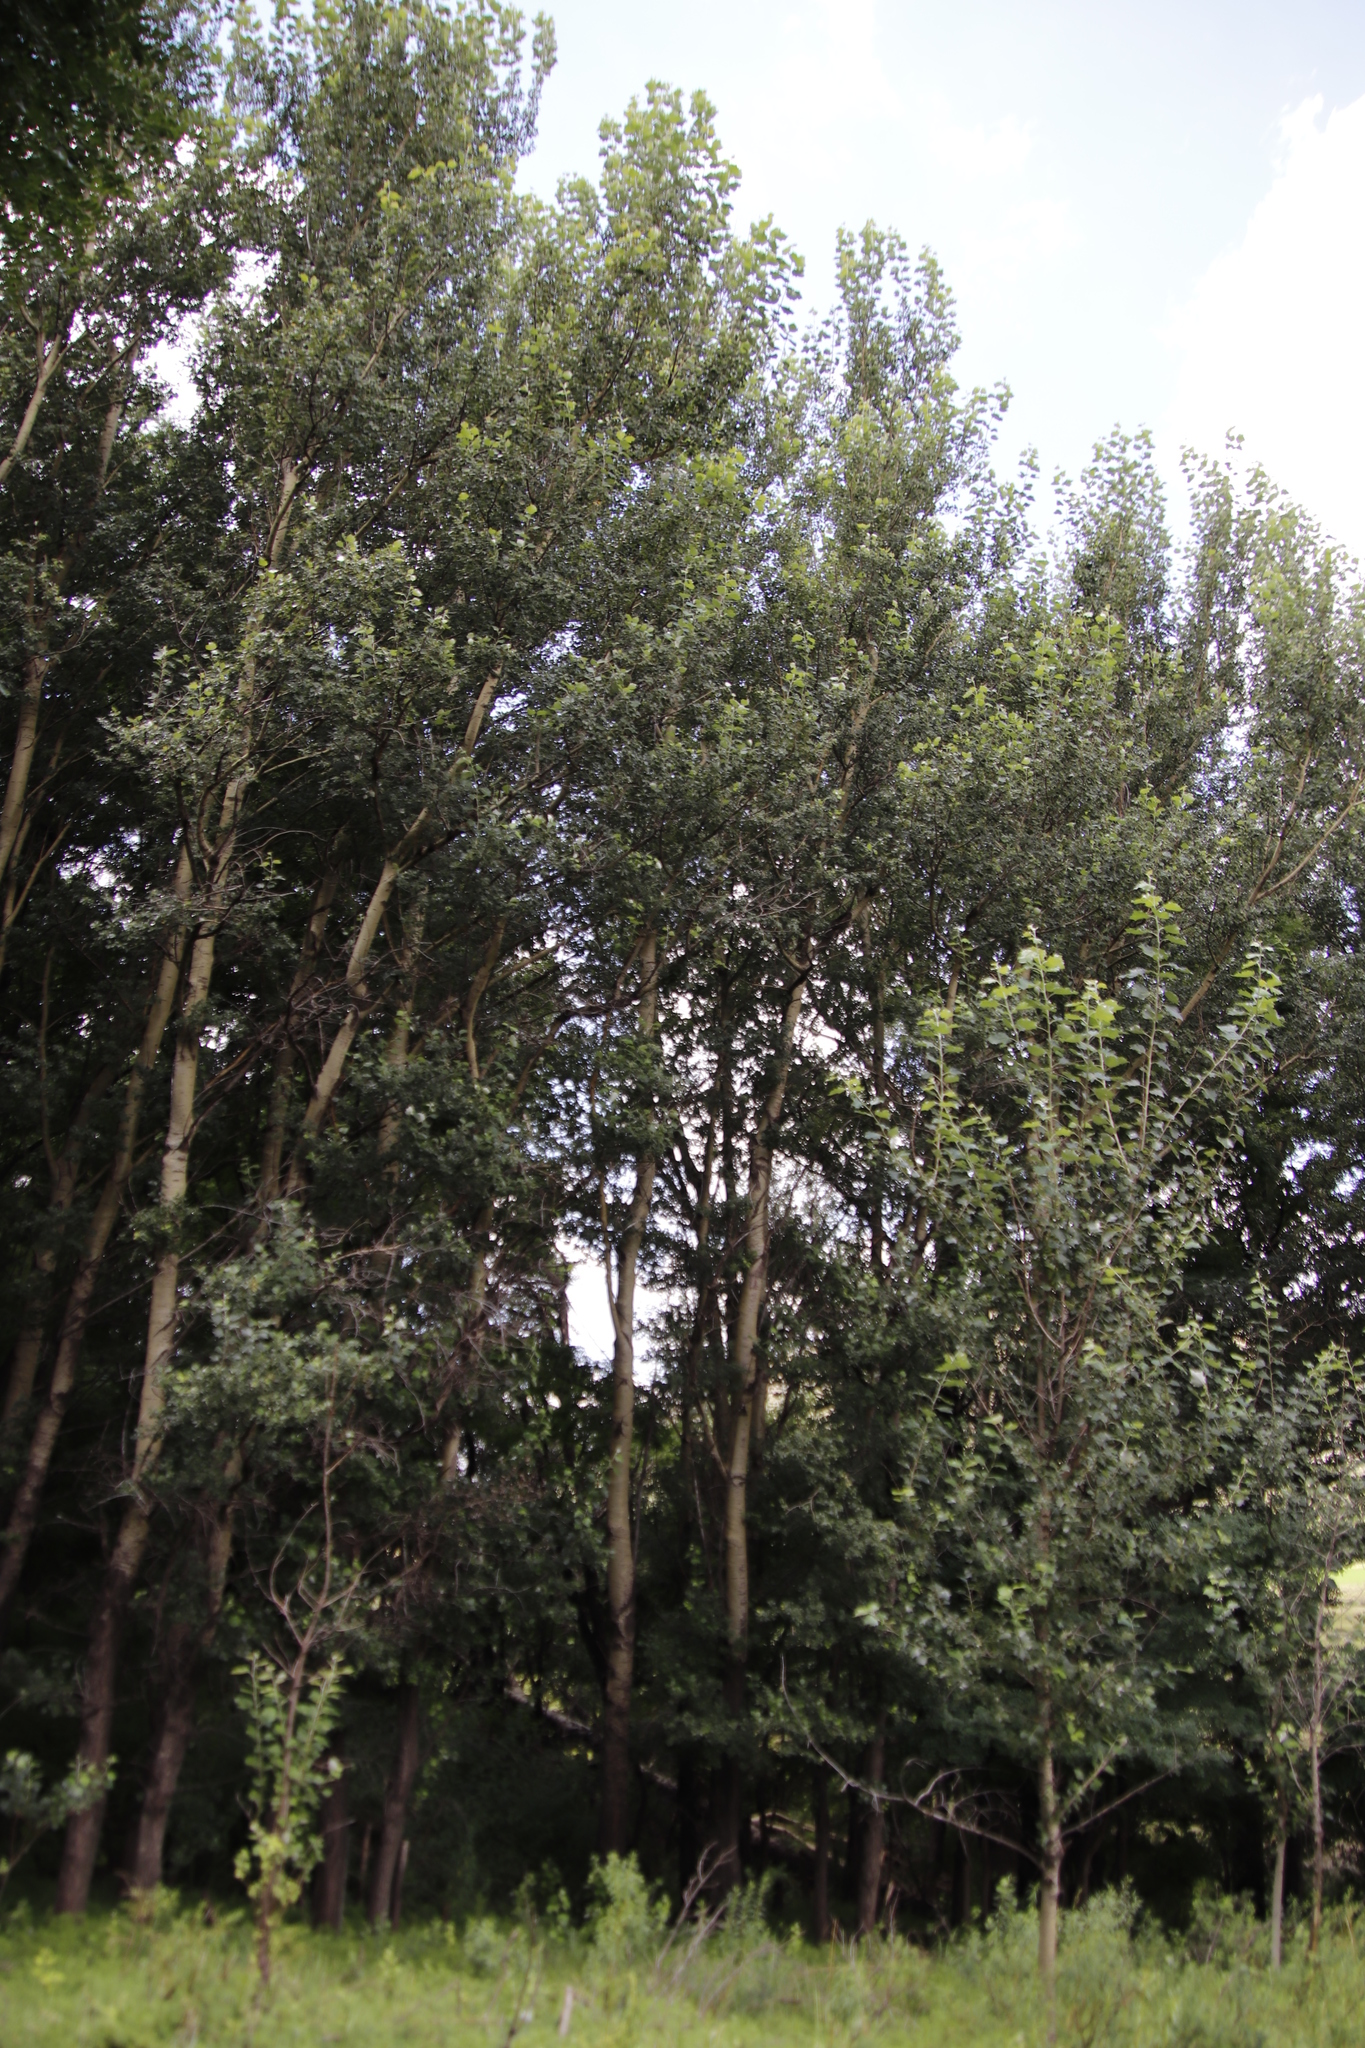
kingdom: Plantae
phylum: Tracheophyta
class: Magnoliopsida
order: Malpighiales
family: Salicaceae
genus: Populus
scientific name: Populus canescens
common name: Gray poplar
